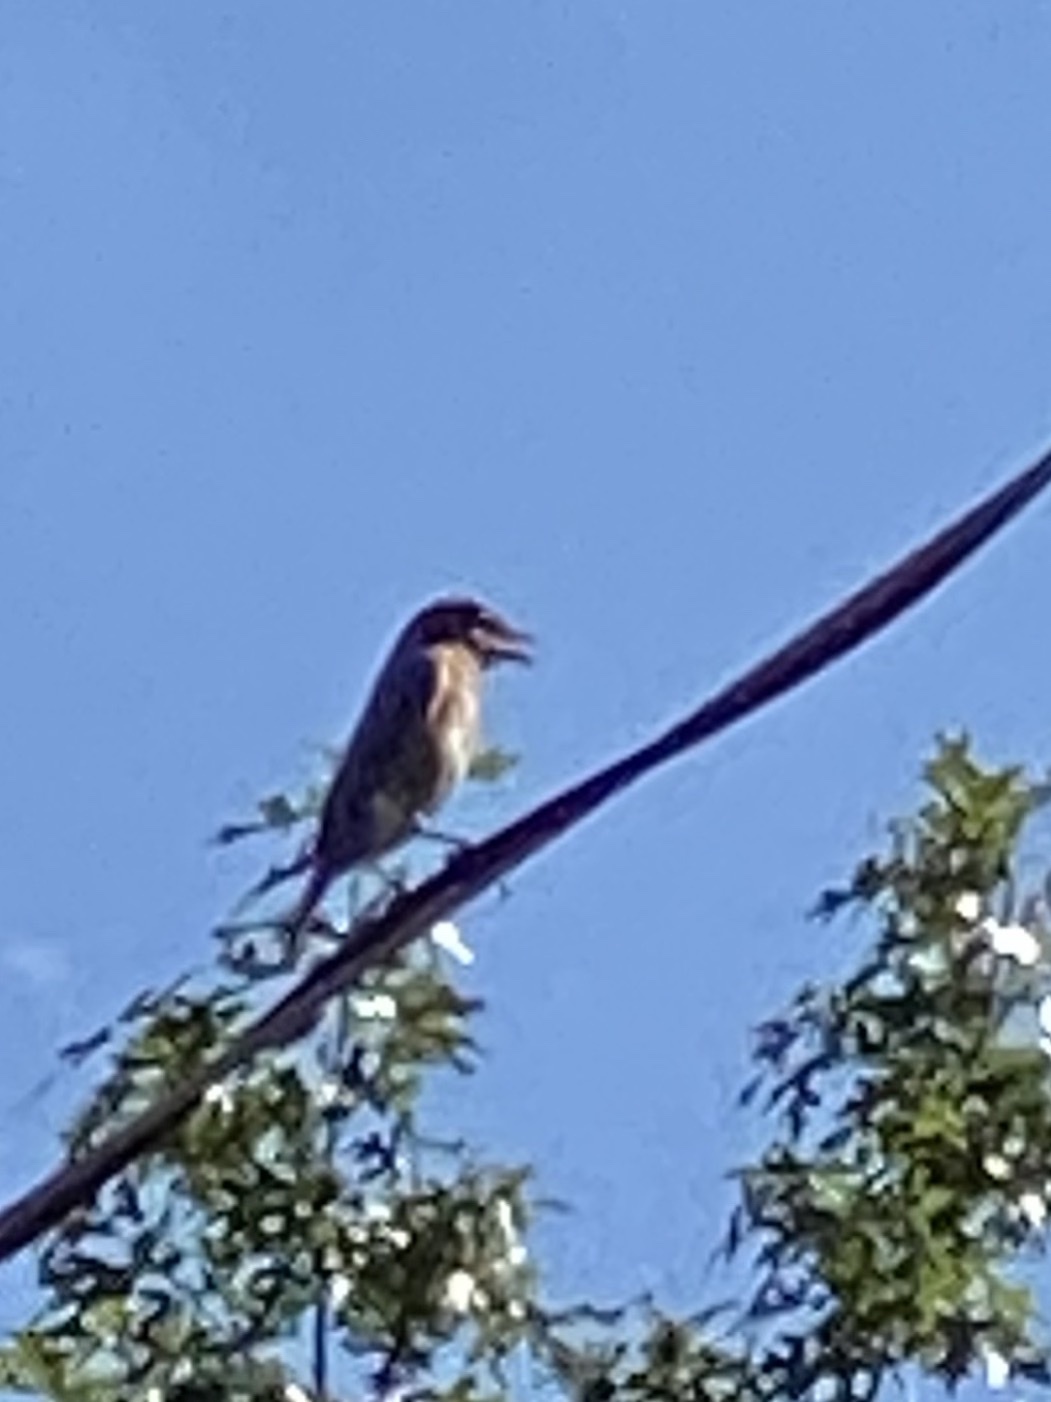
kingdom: Animalia
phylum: Chordata
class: Aves
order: Passeriformes
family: Turdidae
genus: Sialia
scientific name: Sialia sialis
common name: Eastern bluebird
